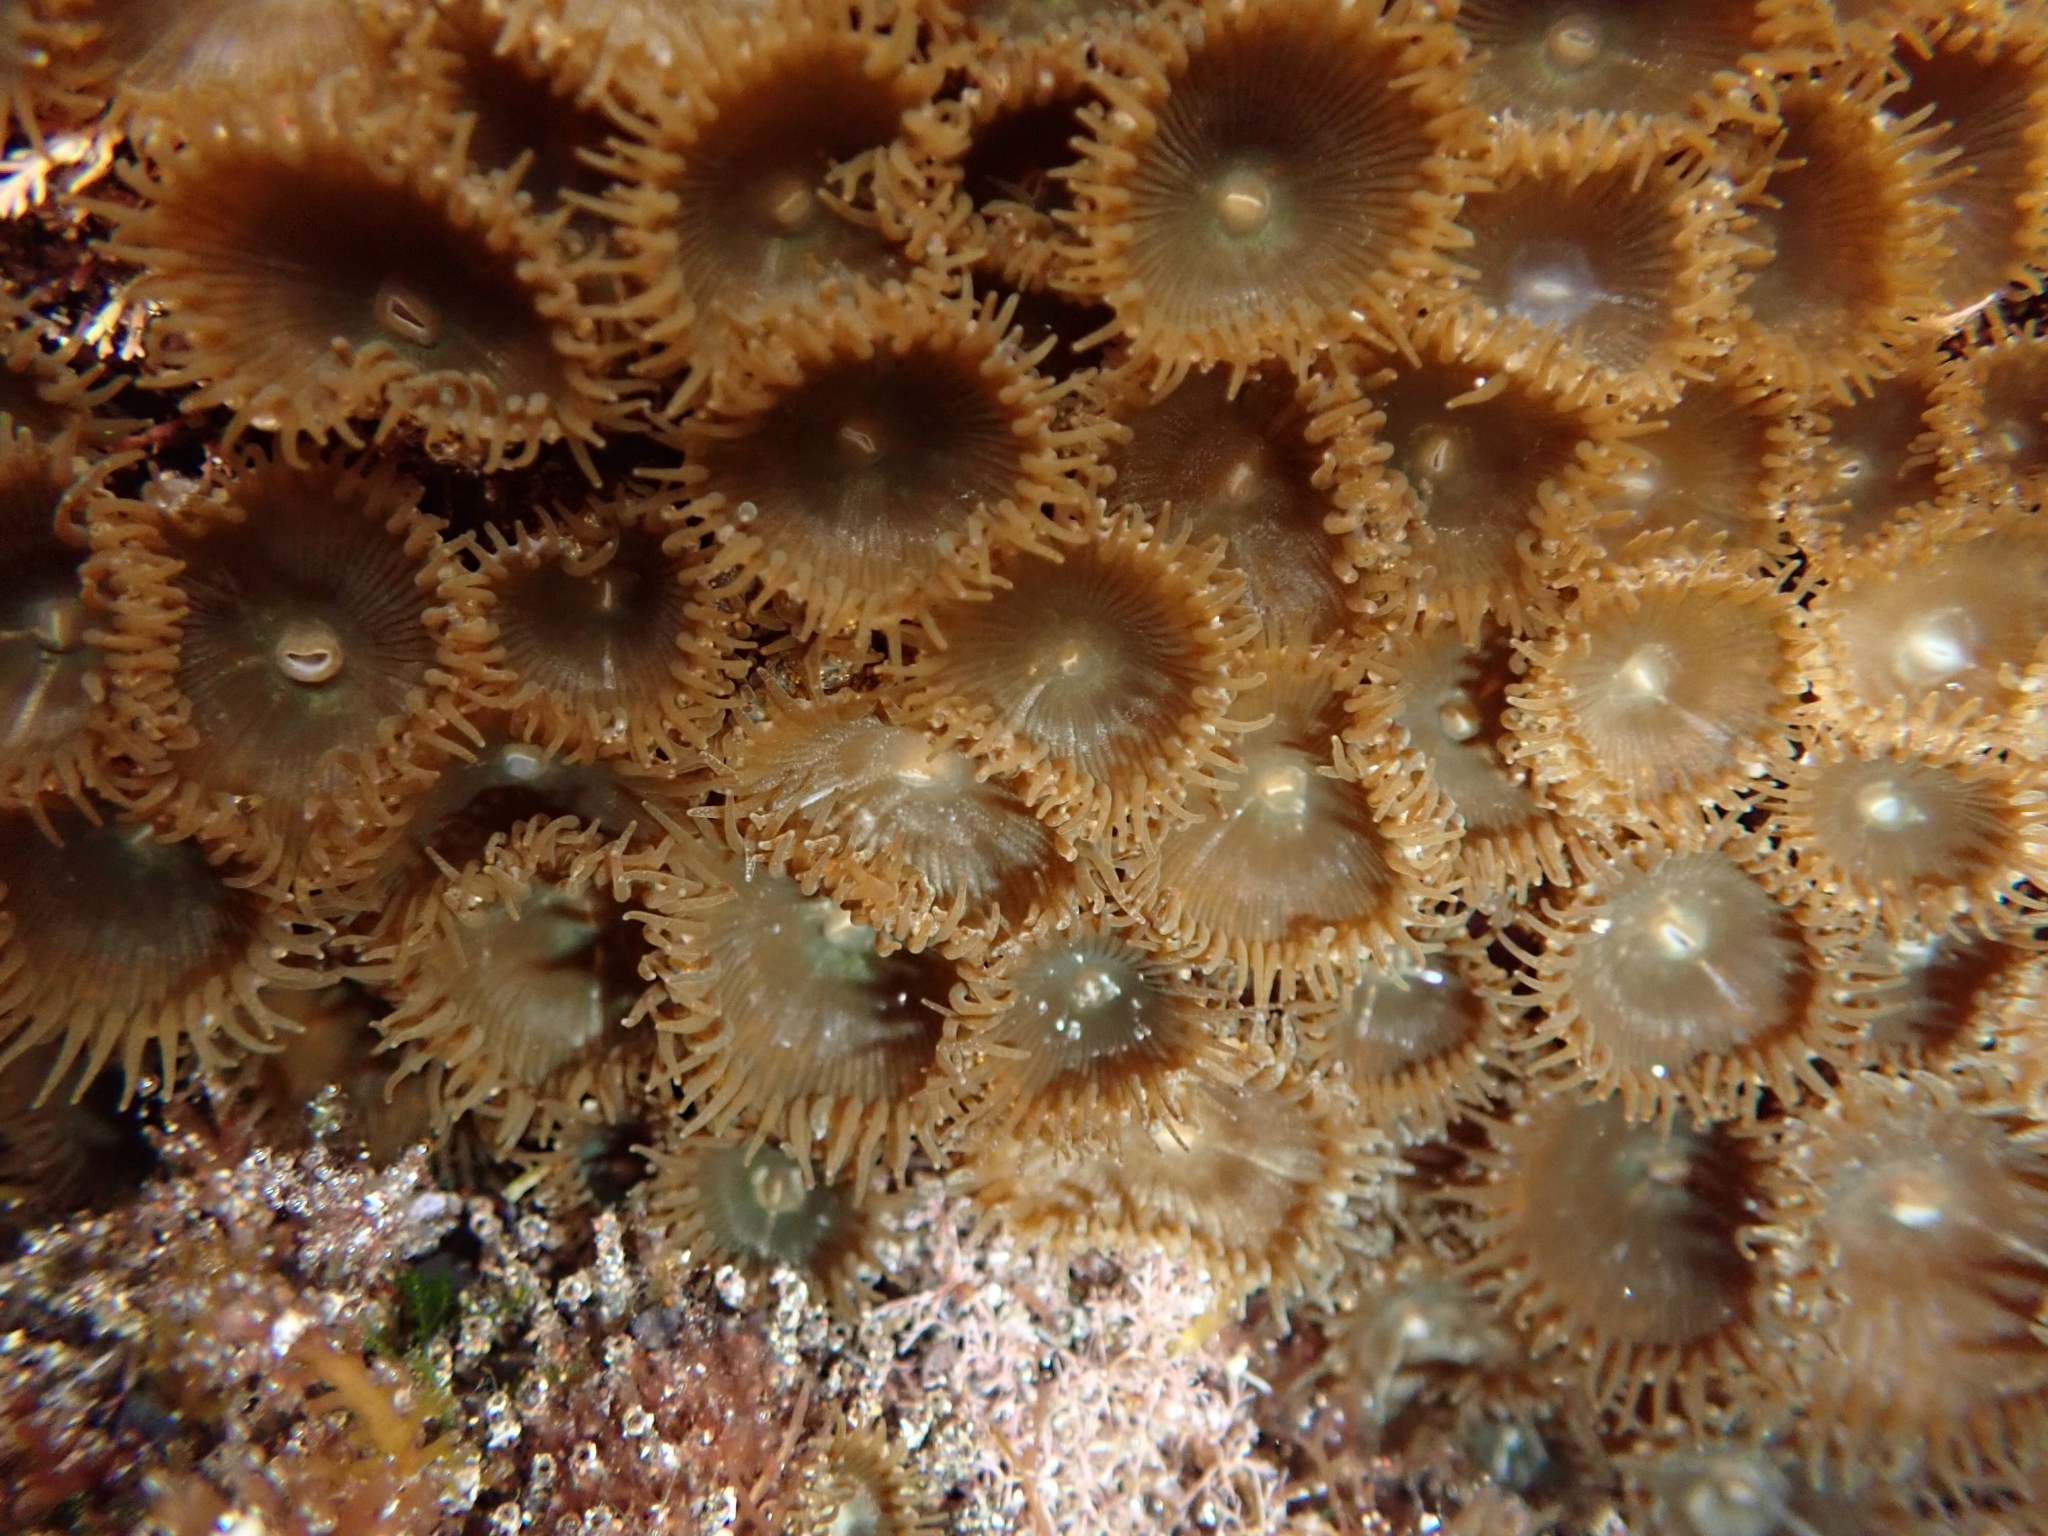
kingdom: Animalia
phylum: Cnidaria
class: Anthozoa
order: Zoantharia
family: Sphenopidae
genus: Palythoa
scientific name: Palythoa grandiflora
